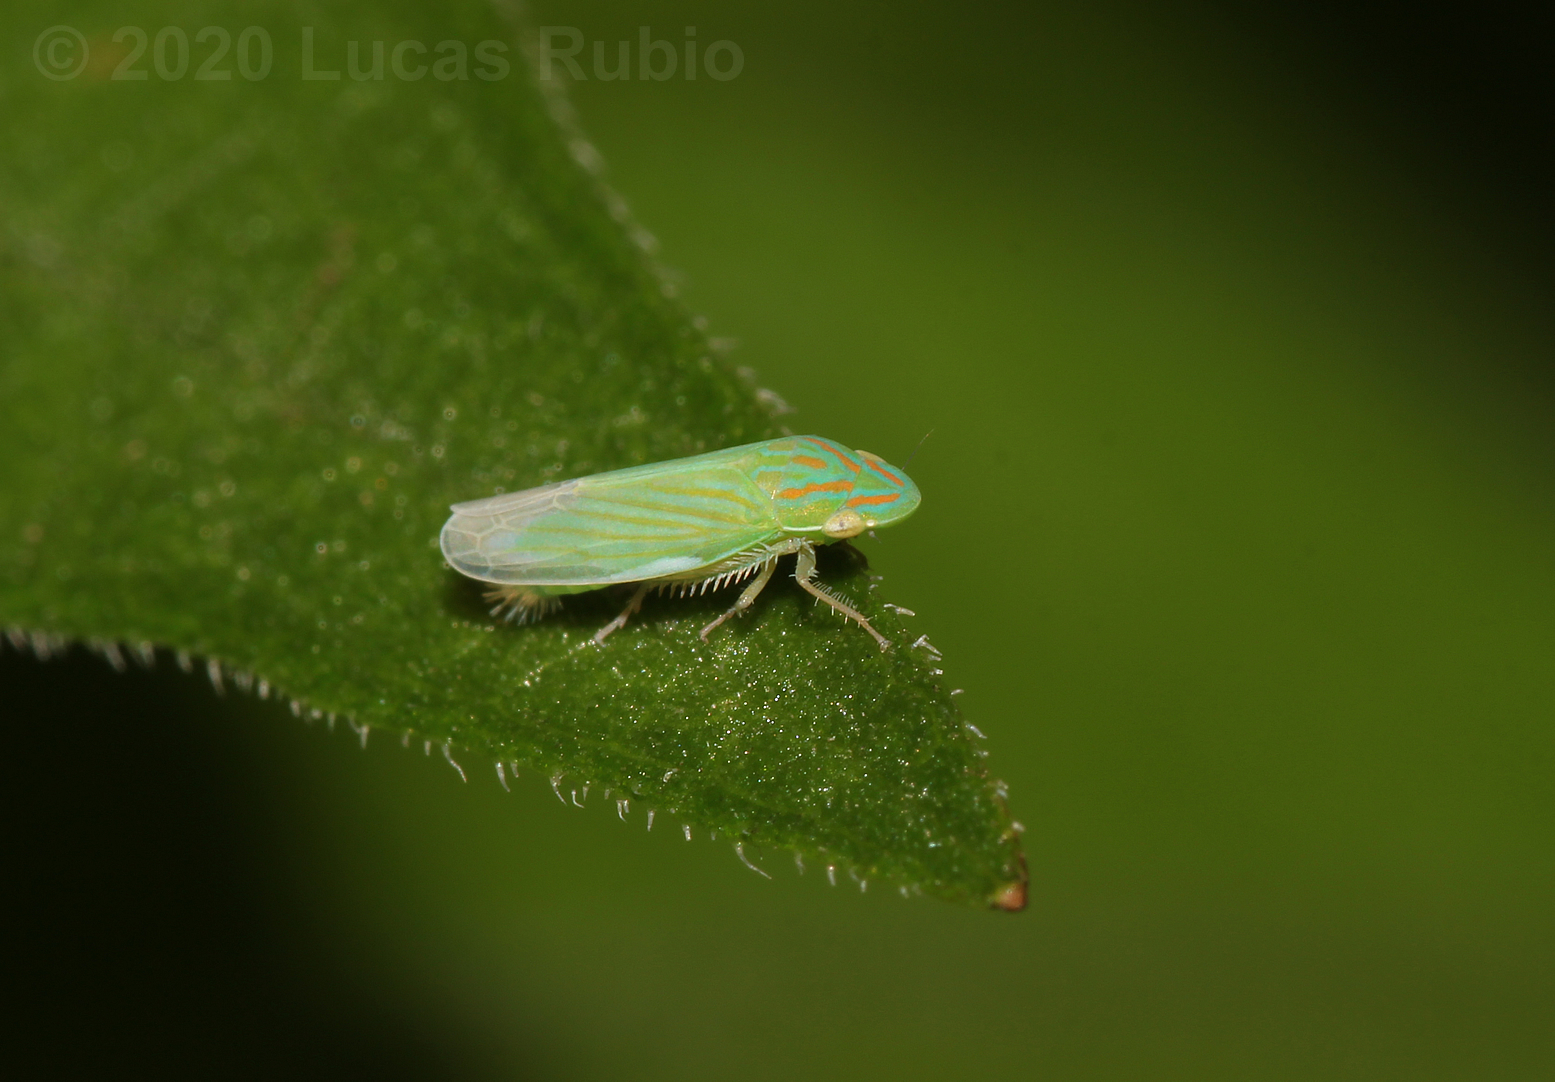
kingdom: Animalia
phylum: Arthropoda
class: Insecta
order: Hemiptera
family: Cicadellidae
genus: Spangbergiella
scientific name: Spangbergiella vulnerata
